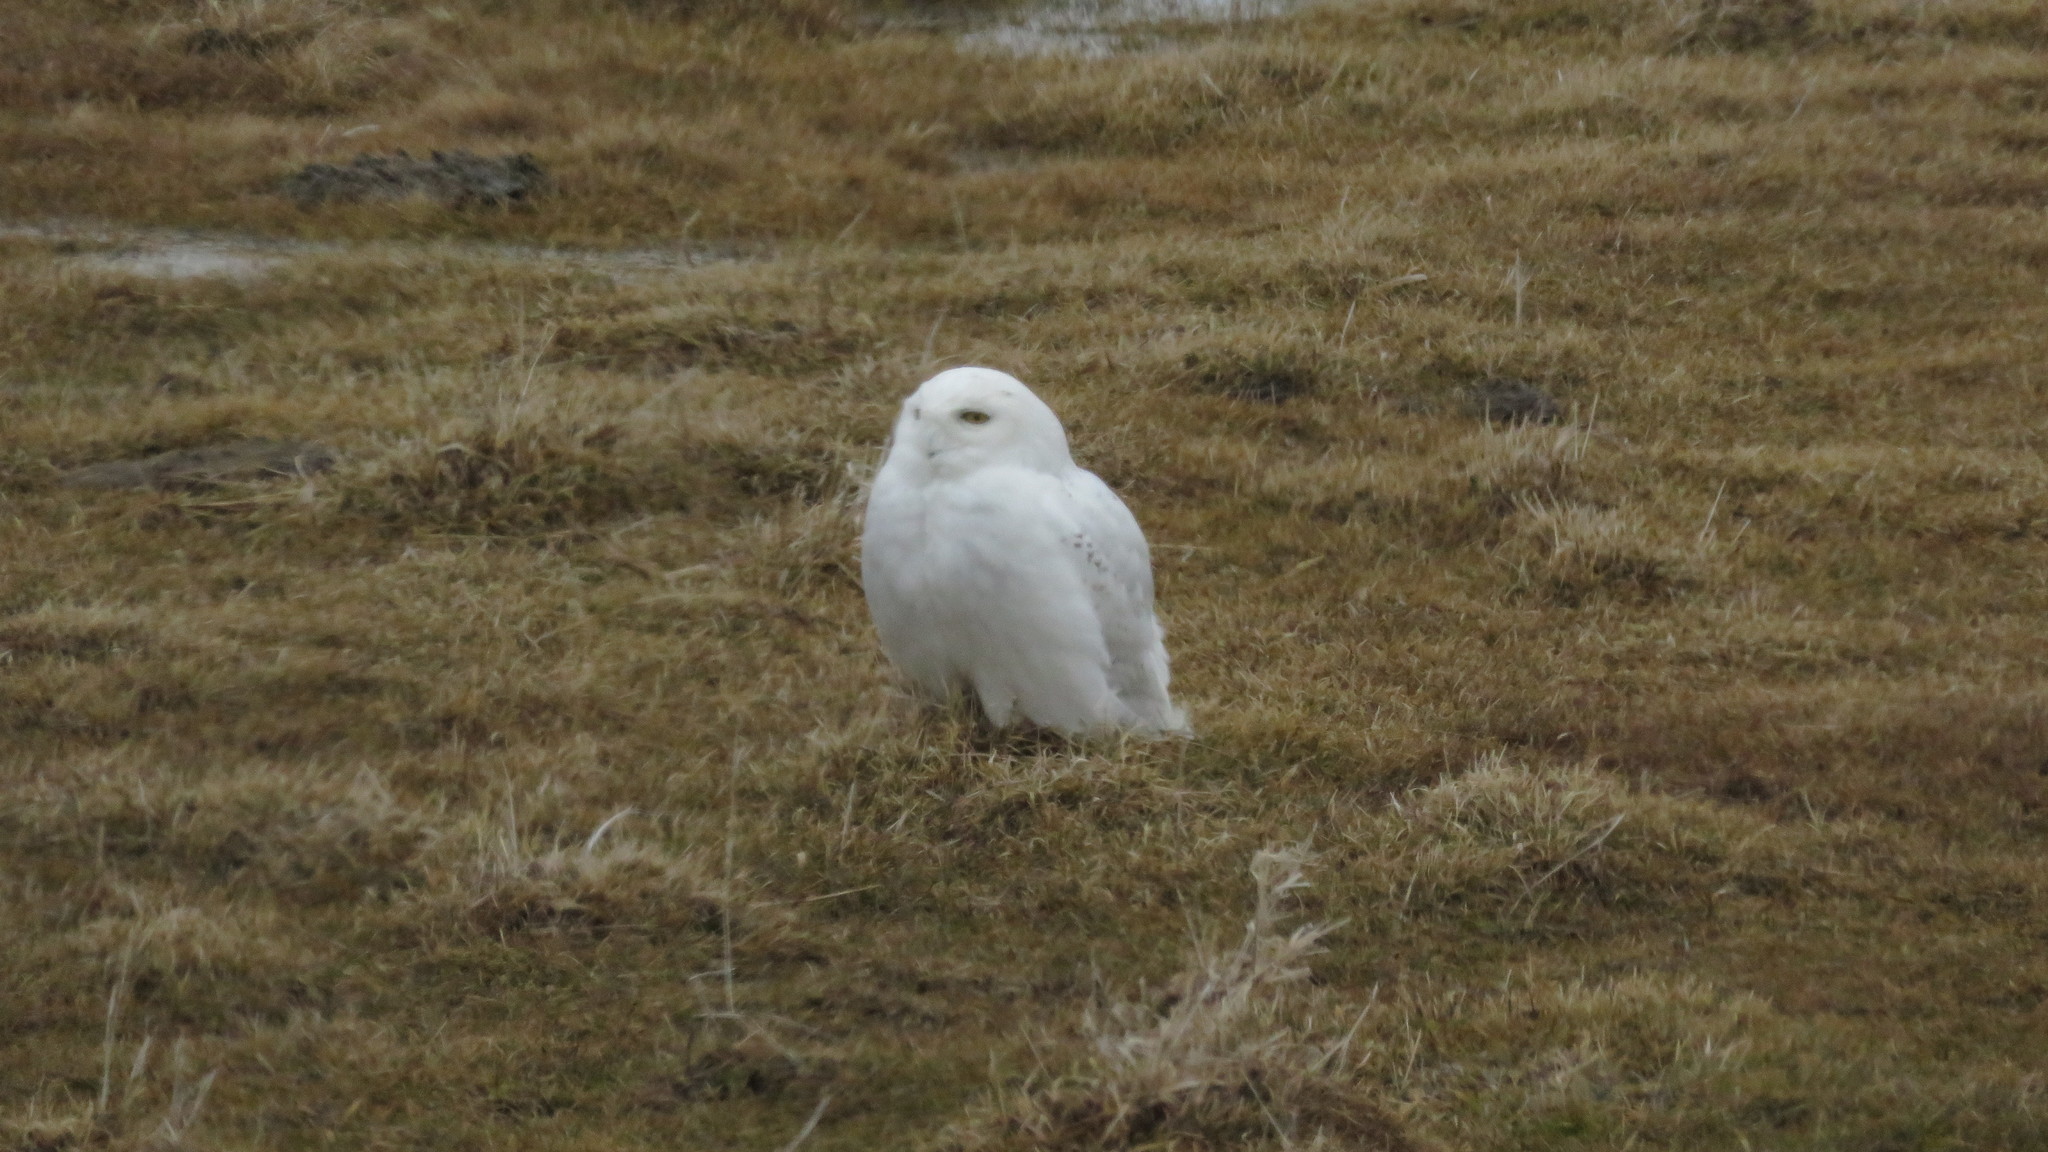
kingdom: Animalia
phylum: Chordata
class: Aves
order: Strigiformes
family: Strigidae
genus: Bubo
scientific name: Bubo scandiacus
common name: Snowy owl
